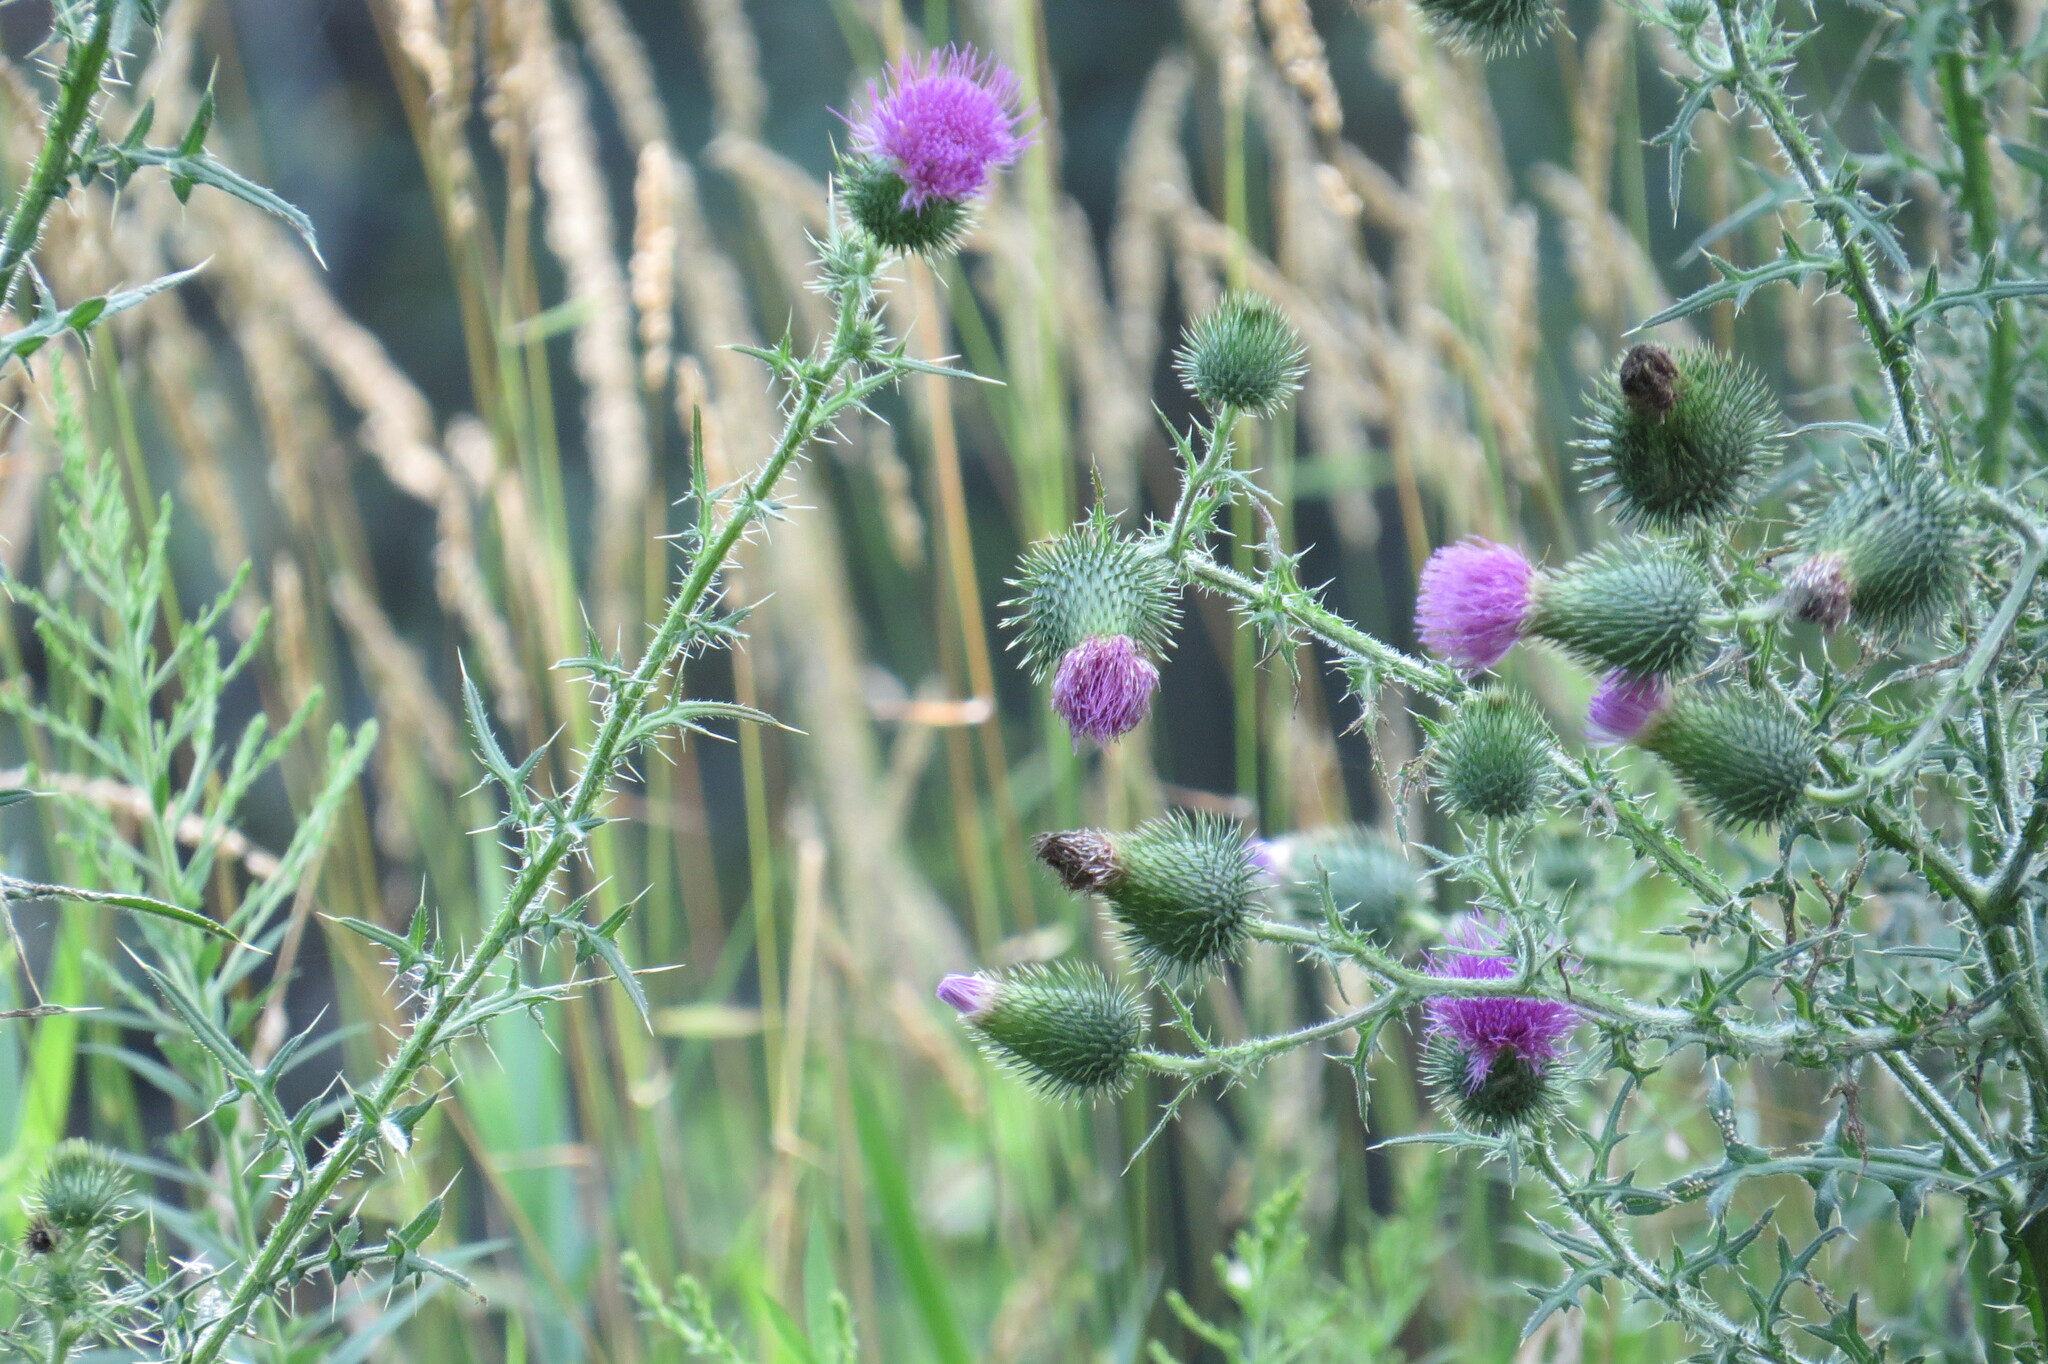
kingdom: Plantae
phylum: Tracheophyta
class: Magnoliopsida
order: Asterales
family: Asteraceae
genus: Cirsium
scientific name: Cirsium vulgare
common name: Bull thistle
